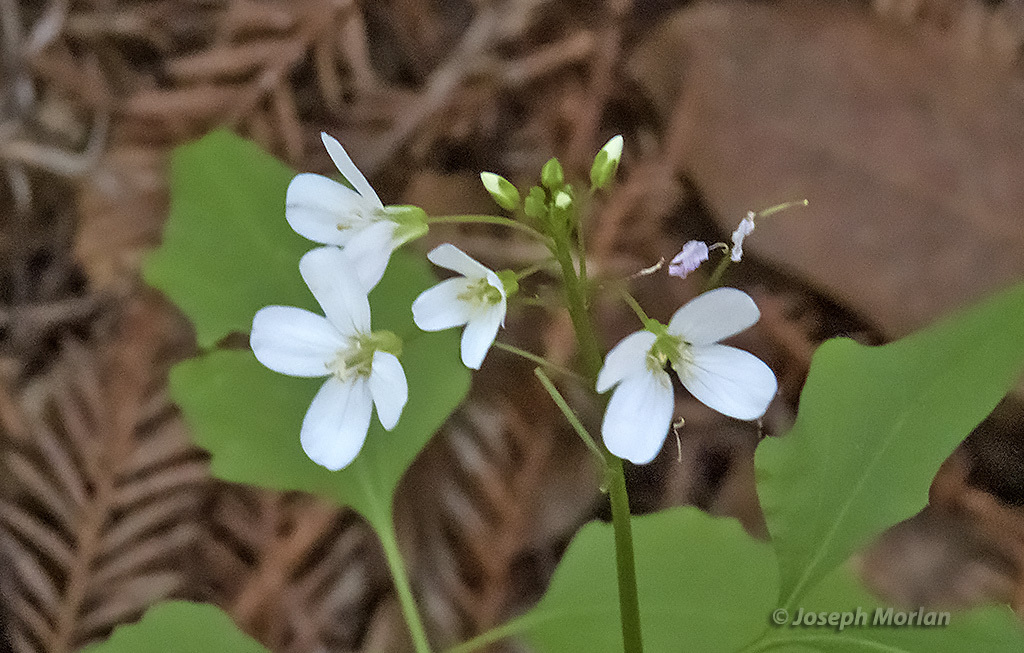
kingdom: Plantae
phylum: Tracheophyta
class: Magnoliopsida
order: Brassicales
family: Brassicaceae
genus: Cardamine
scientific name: Cardamine californica
